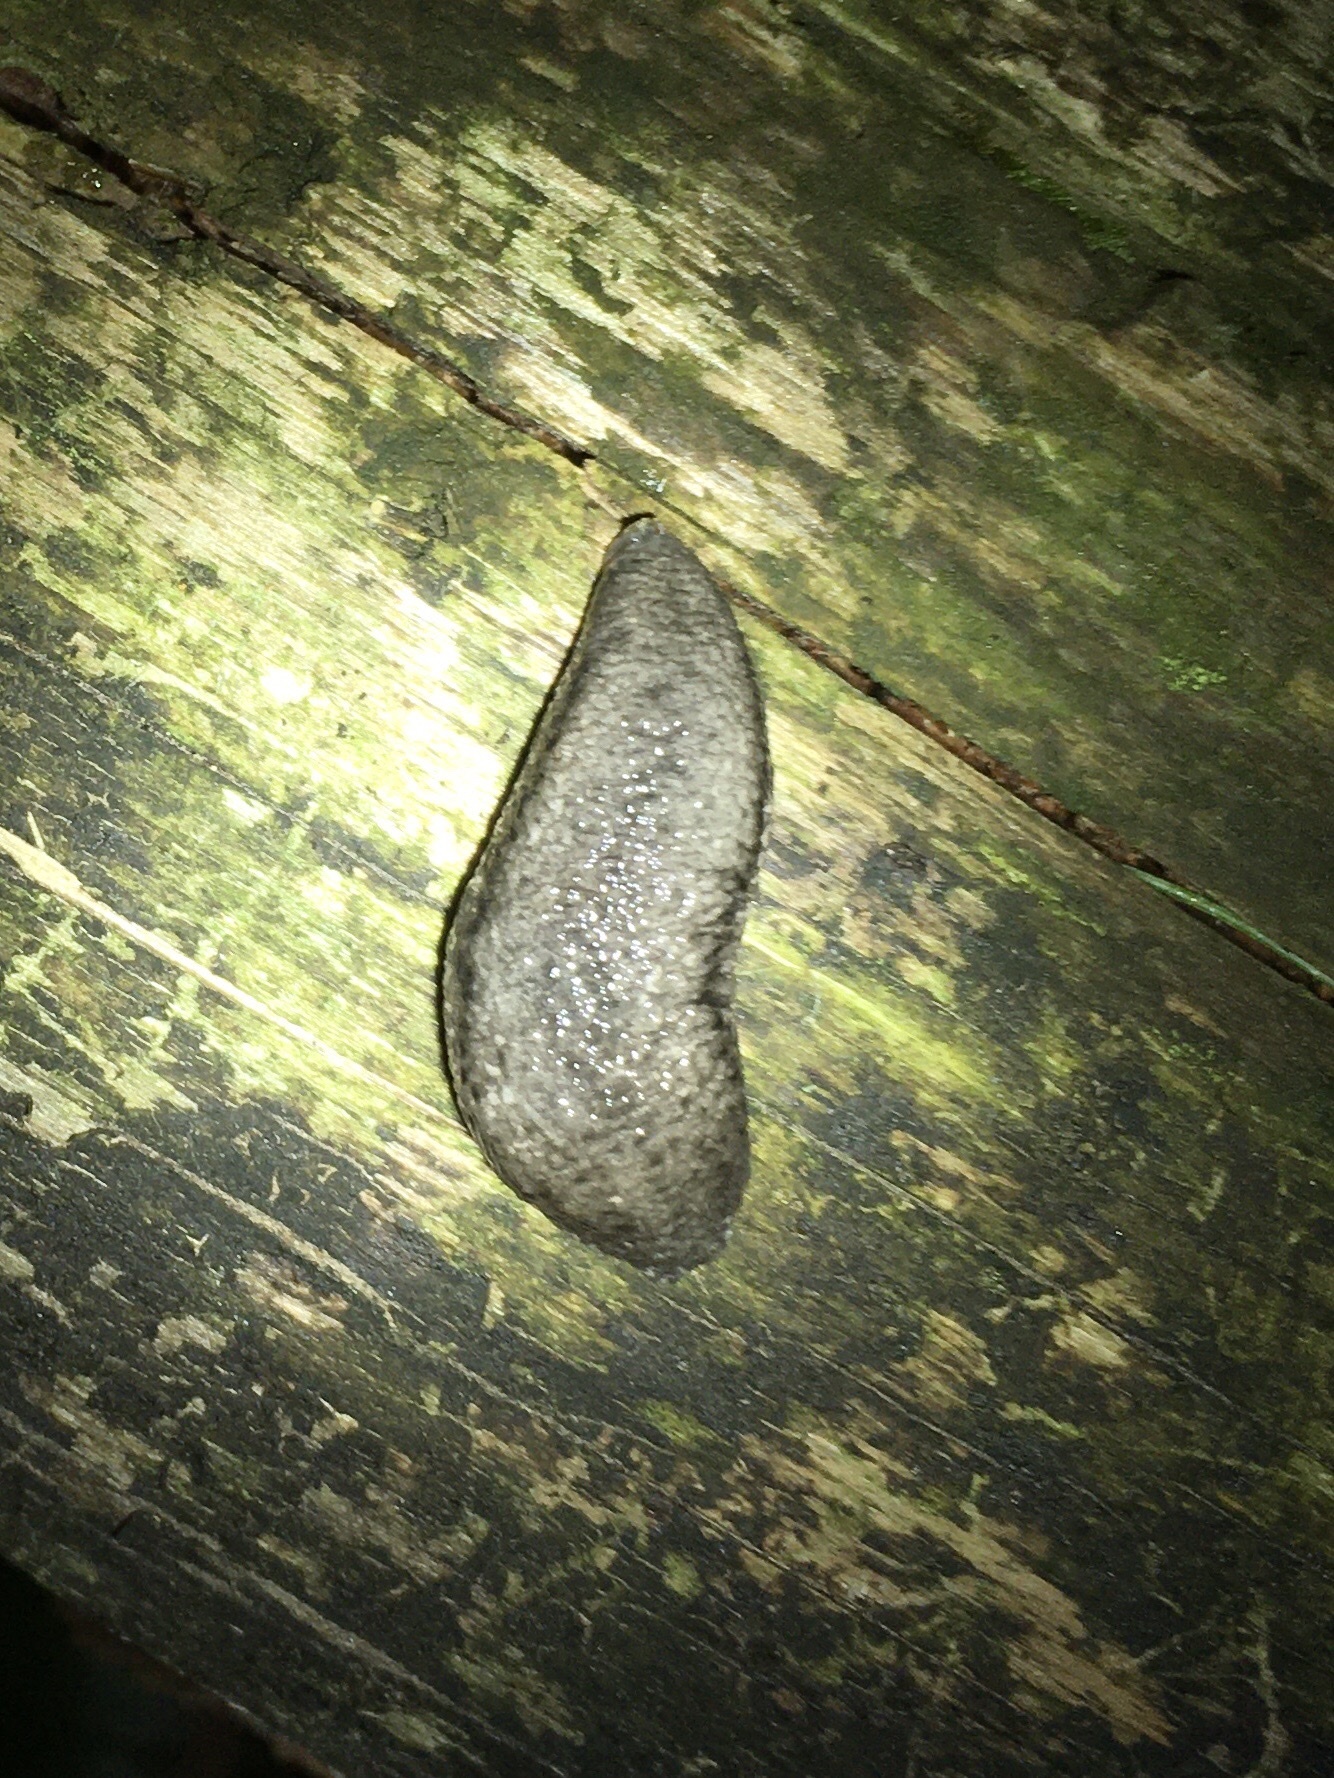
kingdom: Animalia
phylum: Mollusca
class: Gastropoda
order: Stylommatophora
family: Philomycidae
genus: Philomycus
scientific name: Philomycus togatus
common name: Toga mantleslug
